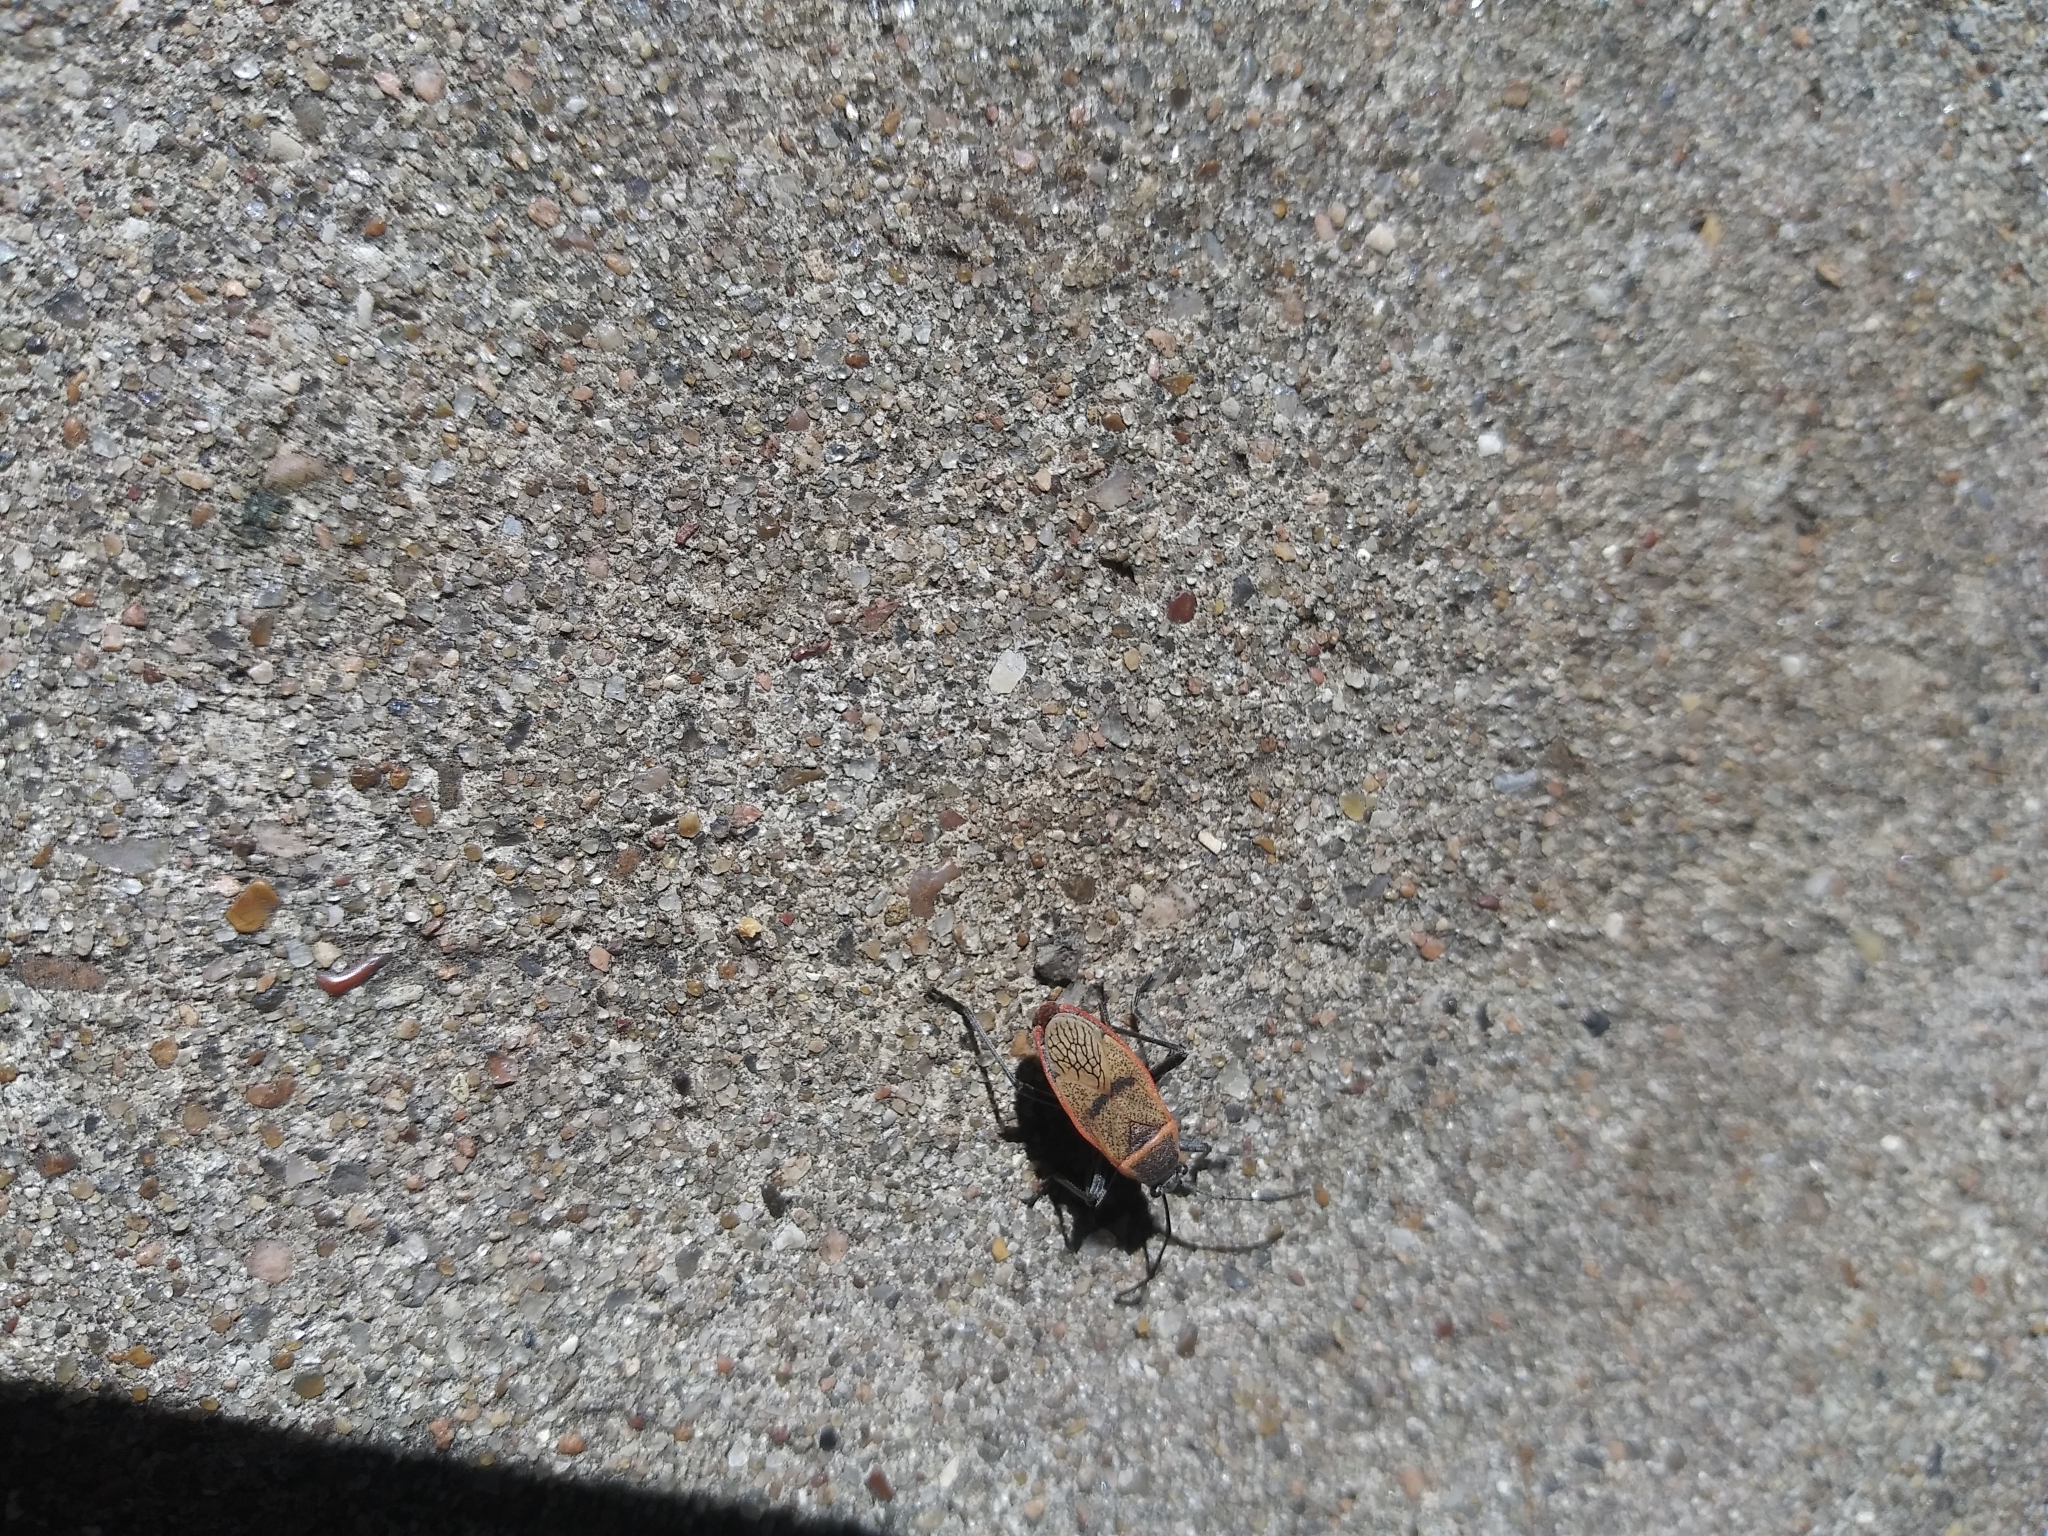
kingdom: Animalia
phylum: Arthropoda
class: Insecta
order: Hemiptera
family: Largidae
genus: Largus
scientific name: Largus maculatus
